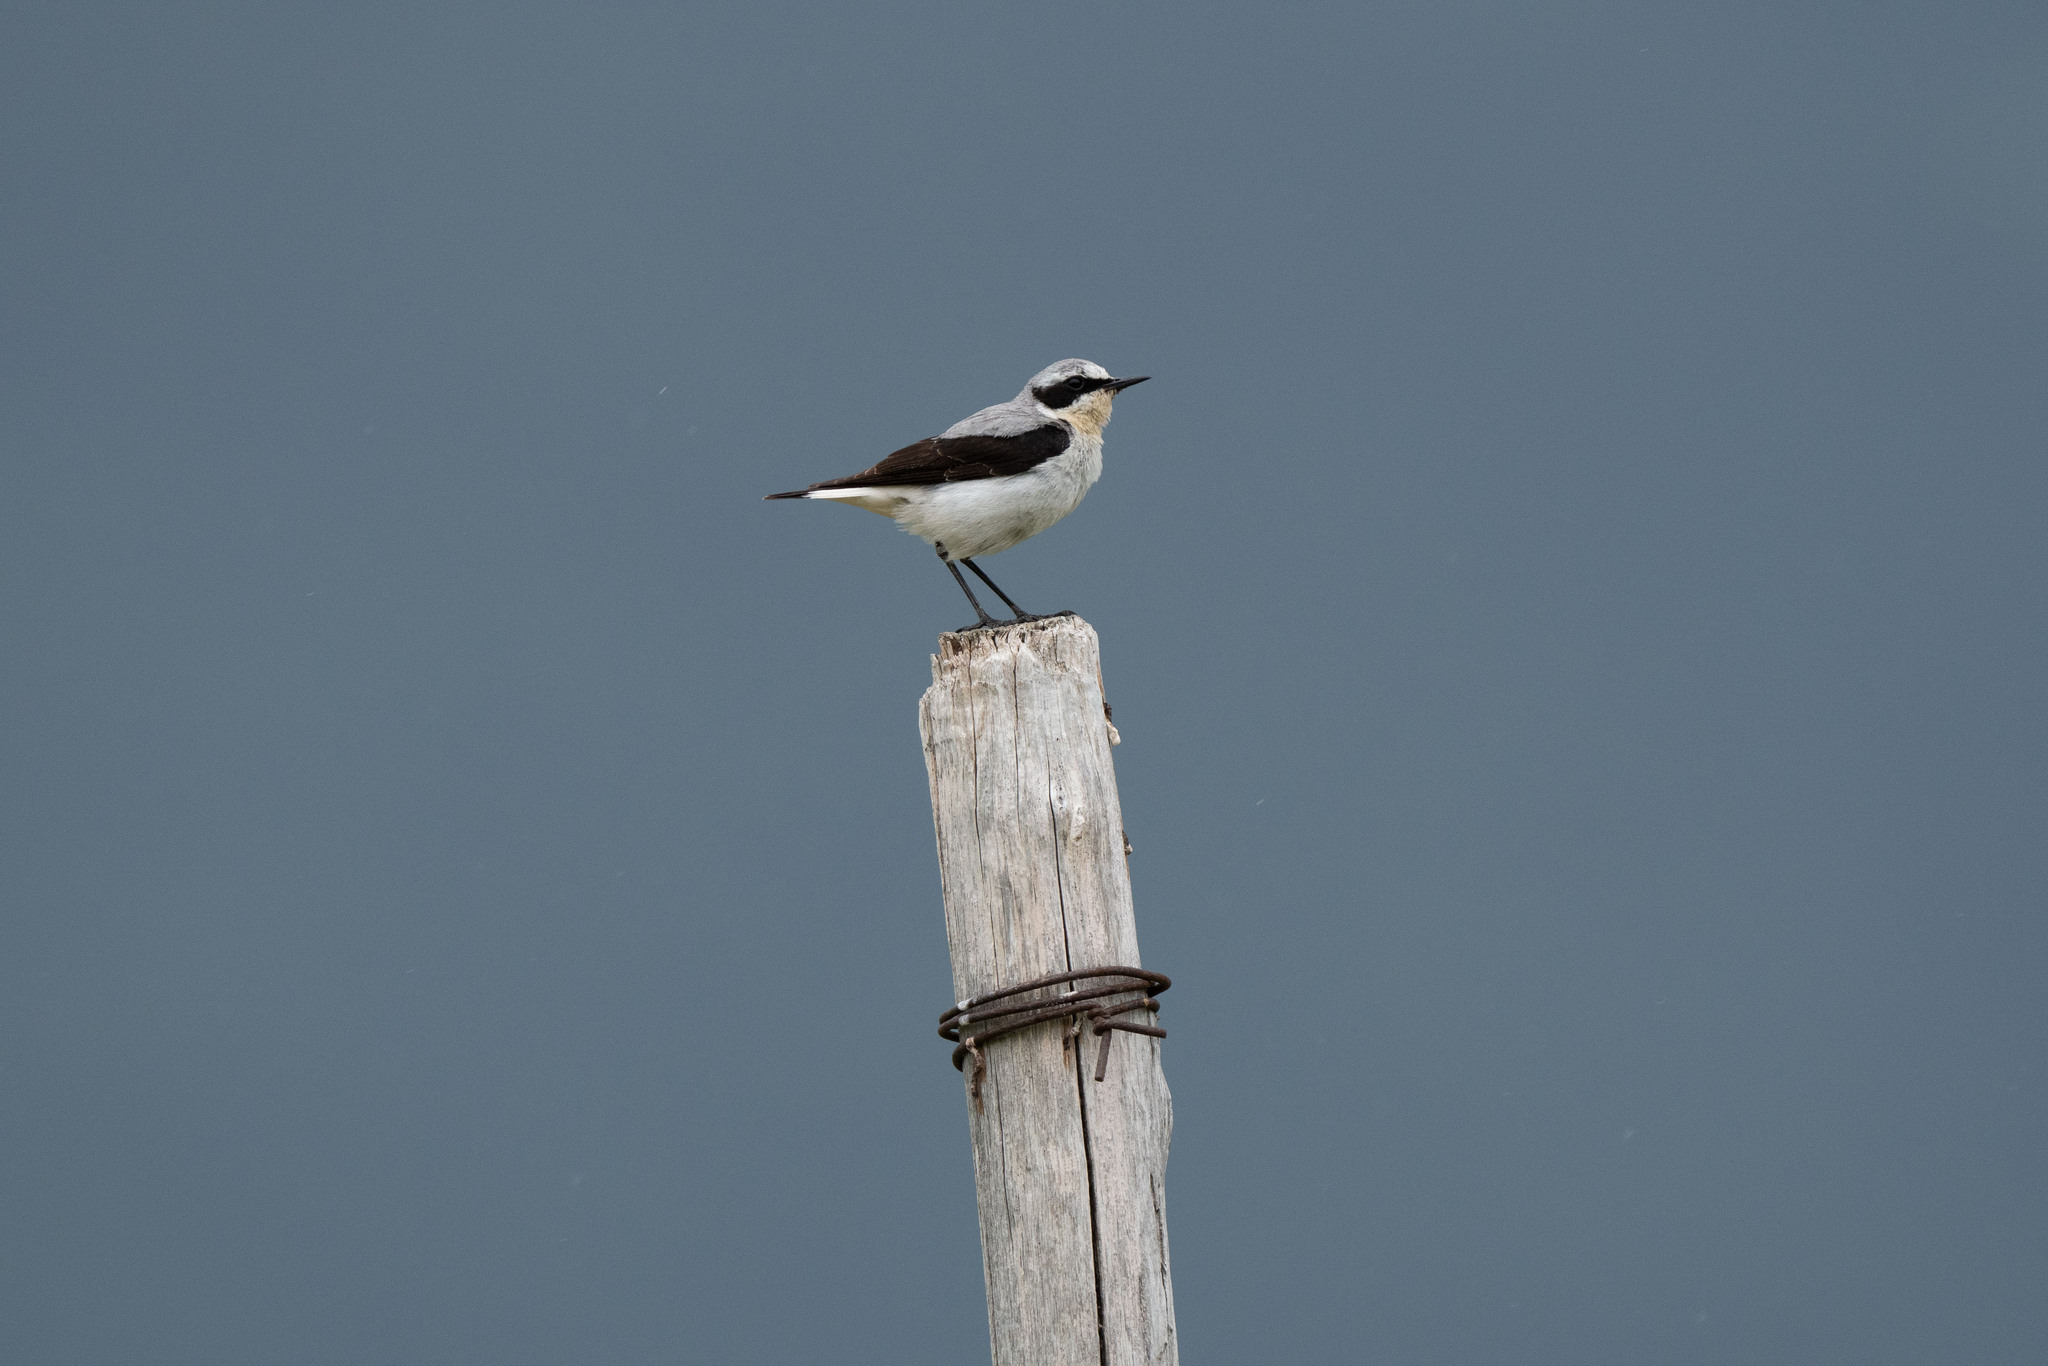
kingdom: Animalia
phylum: Chordata
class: Aves
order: Passeriformes
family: Muscicapidae
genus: Oenanthe
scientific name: Oenanthe oenanthe
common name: Northern wheatear
